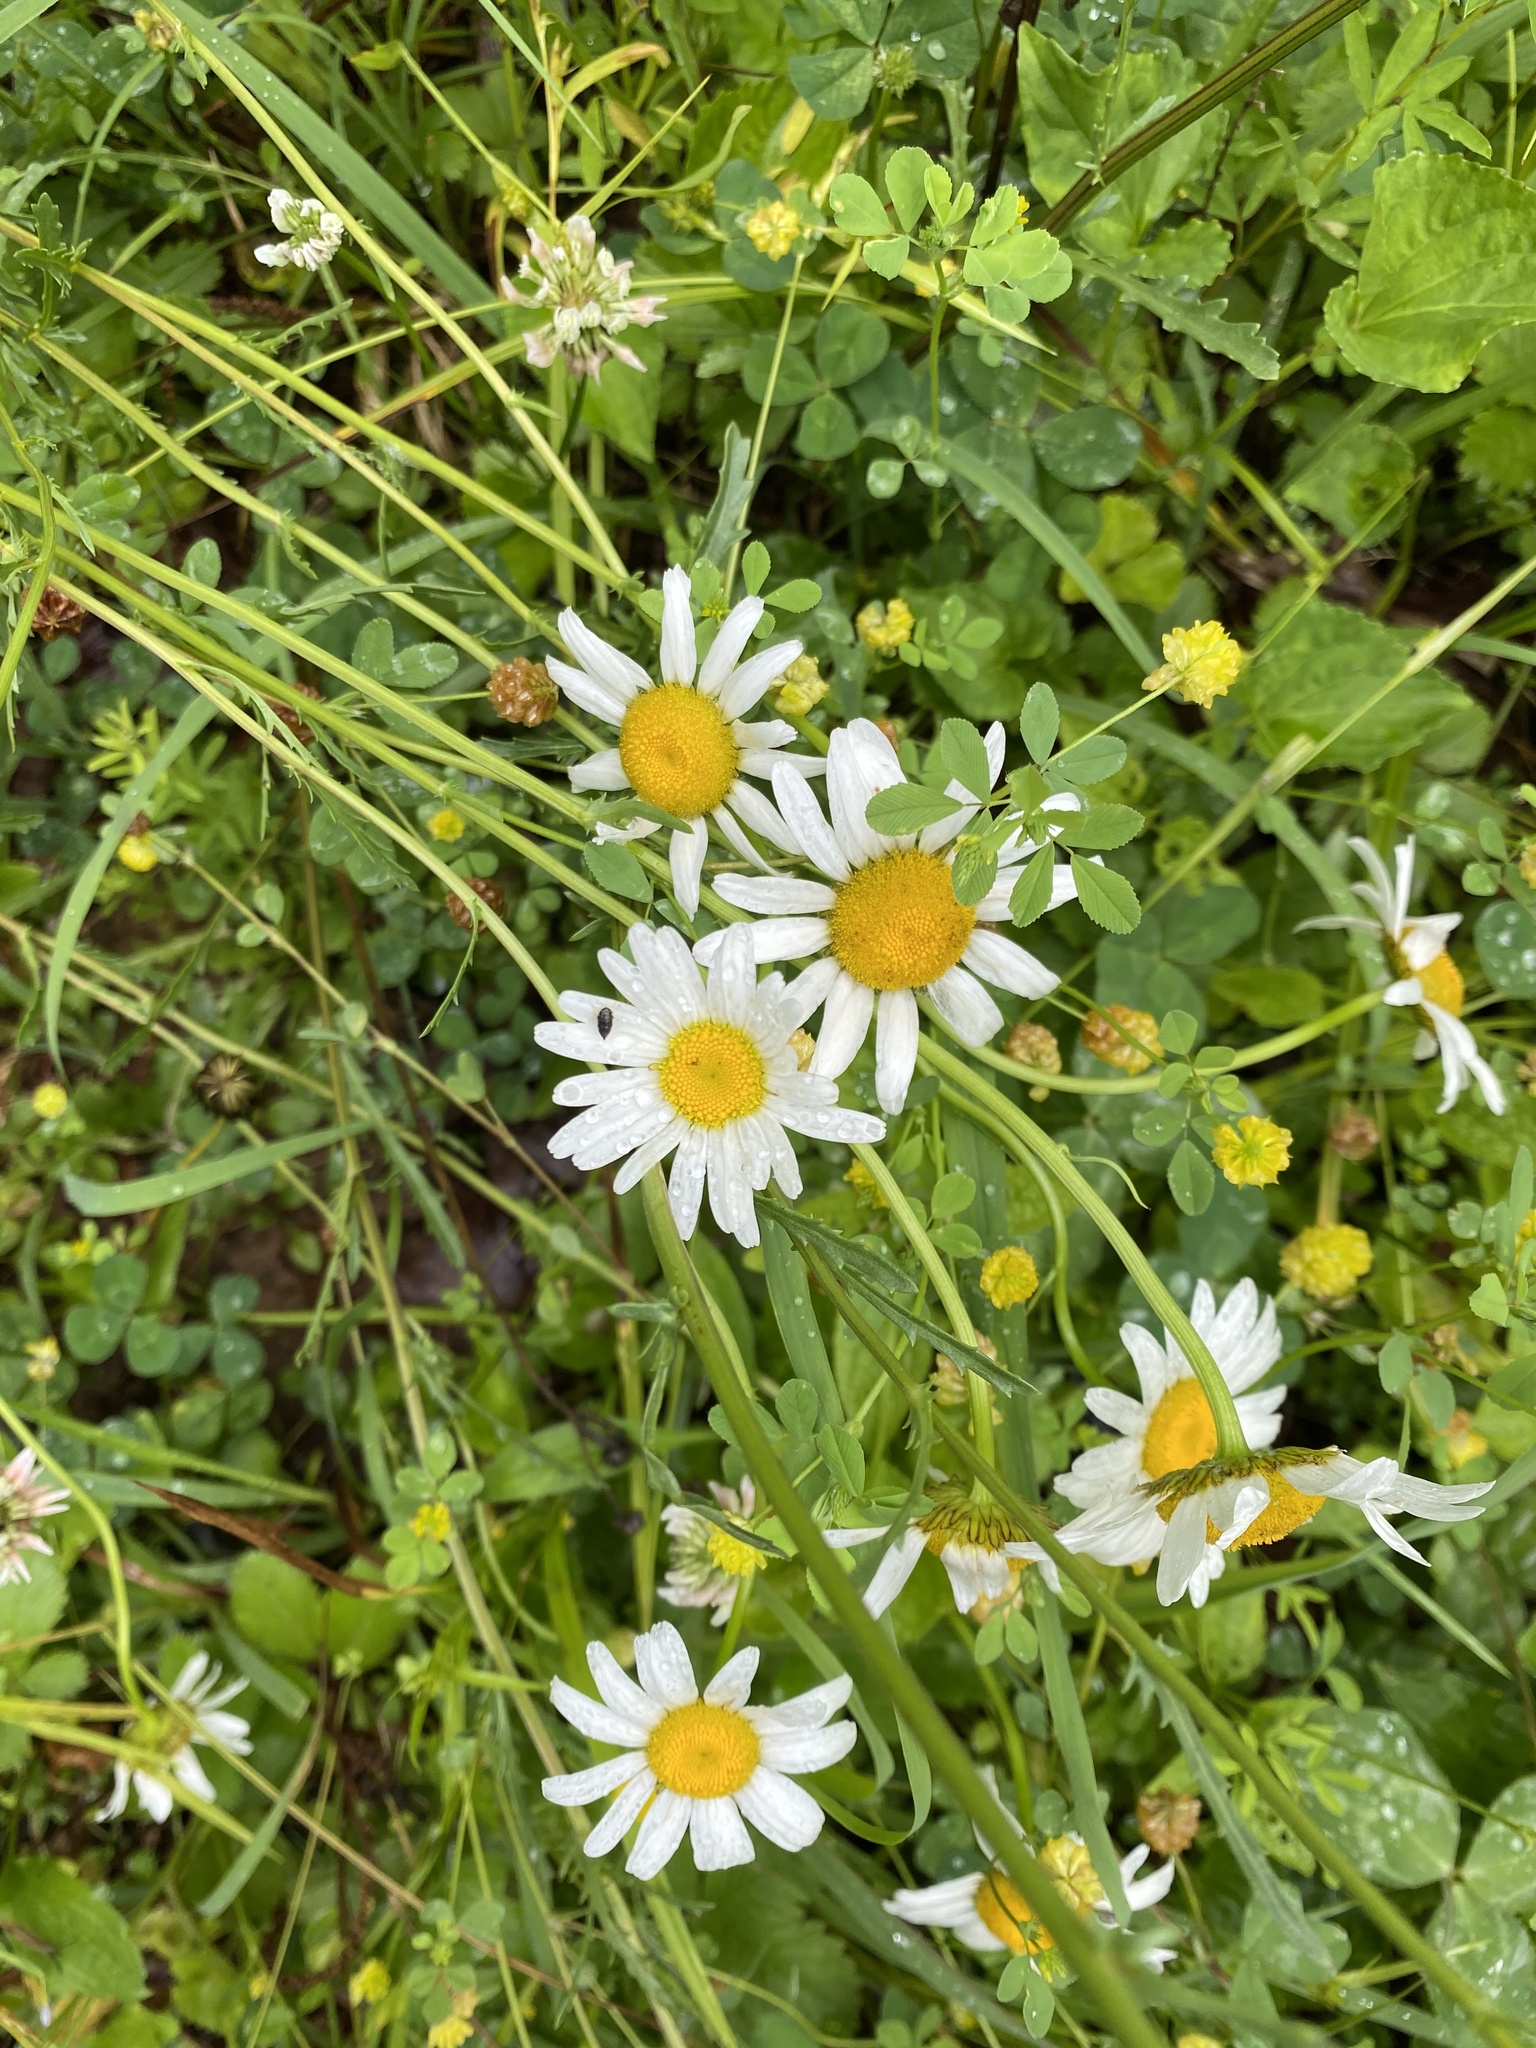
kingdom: Plantae
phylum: Tracheophyta
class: Magnoliopsida
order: Asterales
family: Asteraceae
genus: Leucanthemum
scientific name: Leucanthemum vulgare
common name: Oxeye daisy
